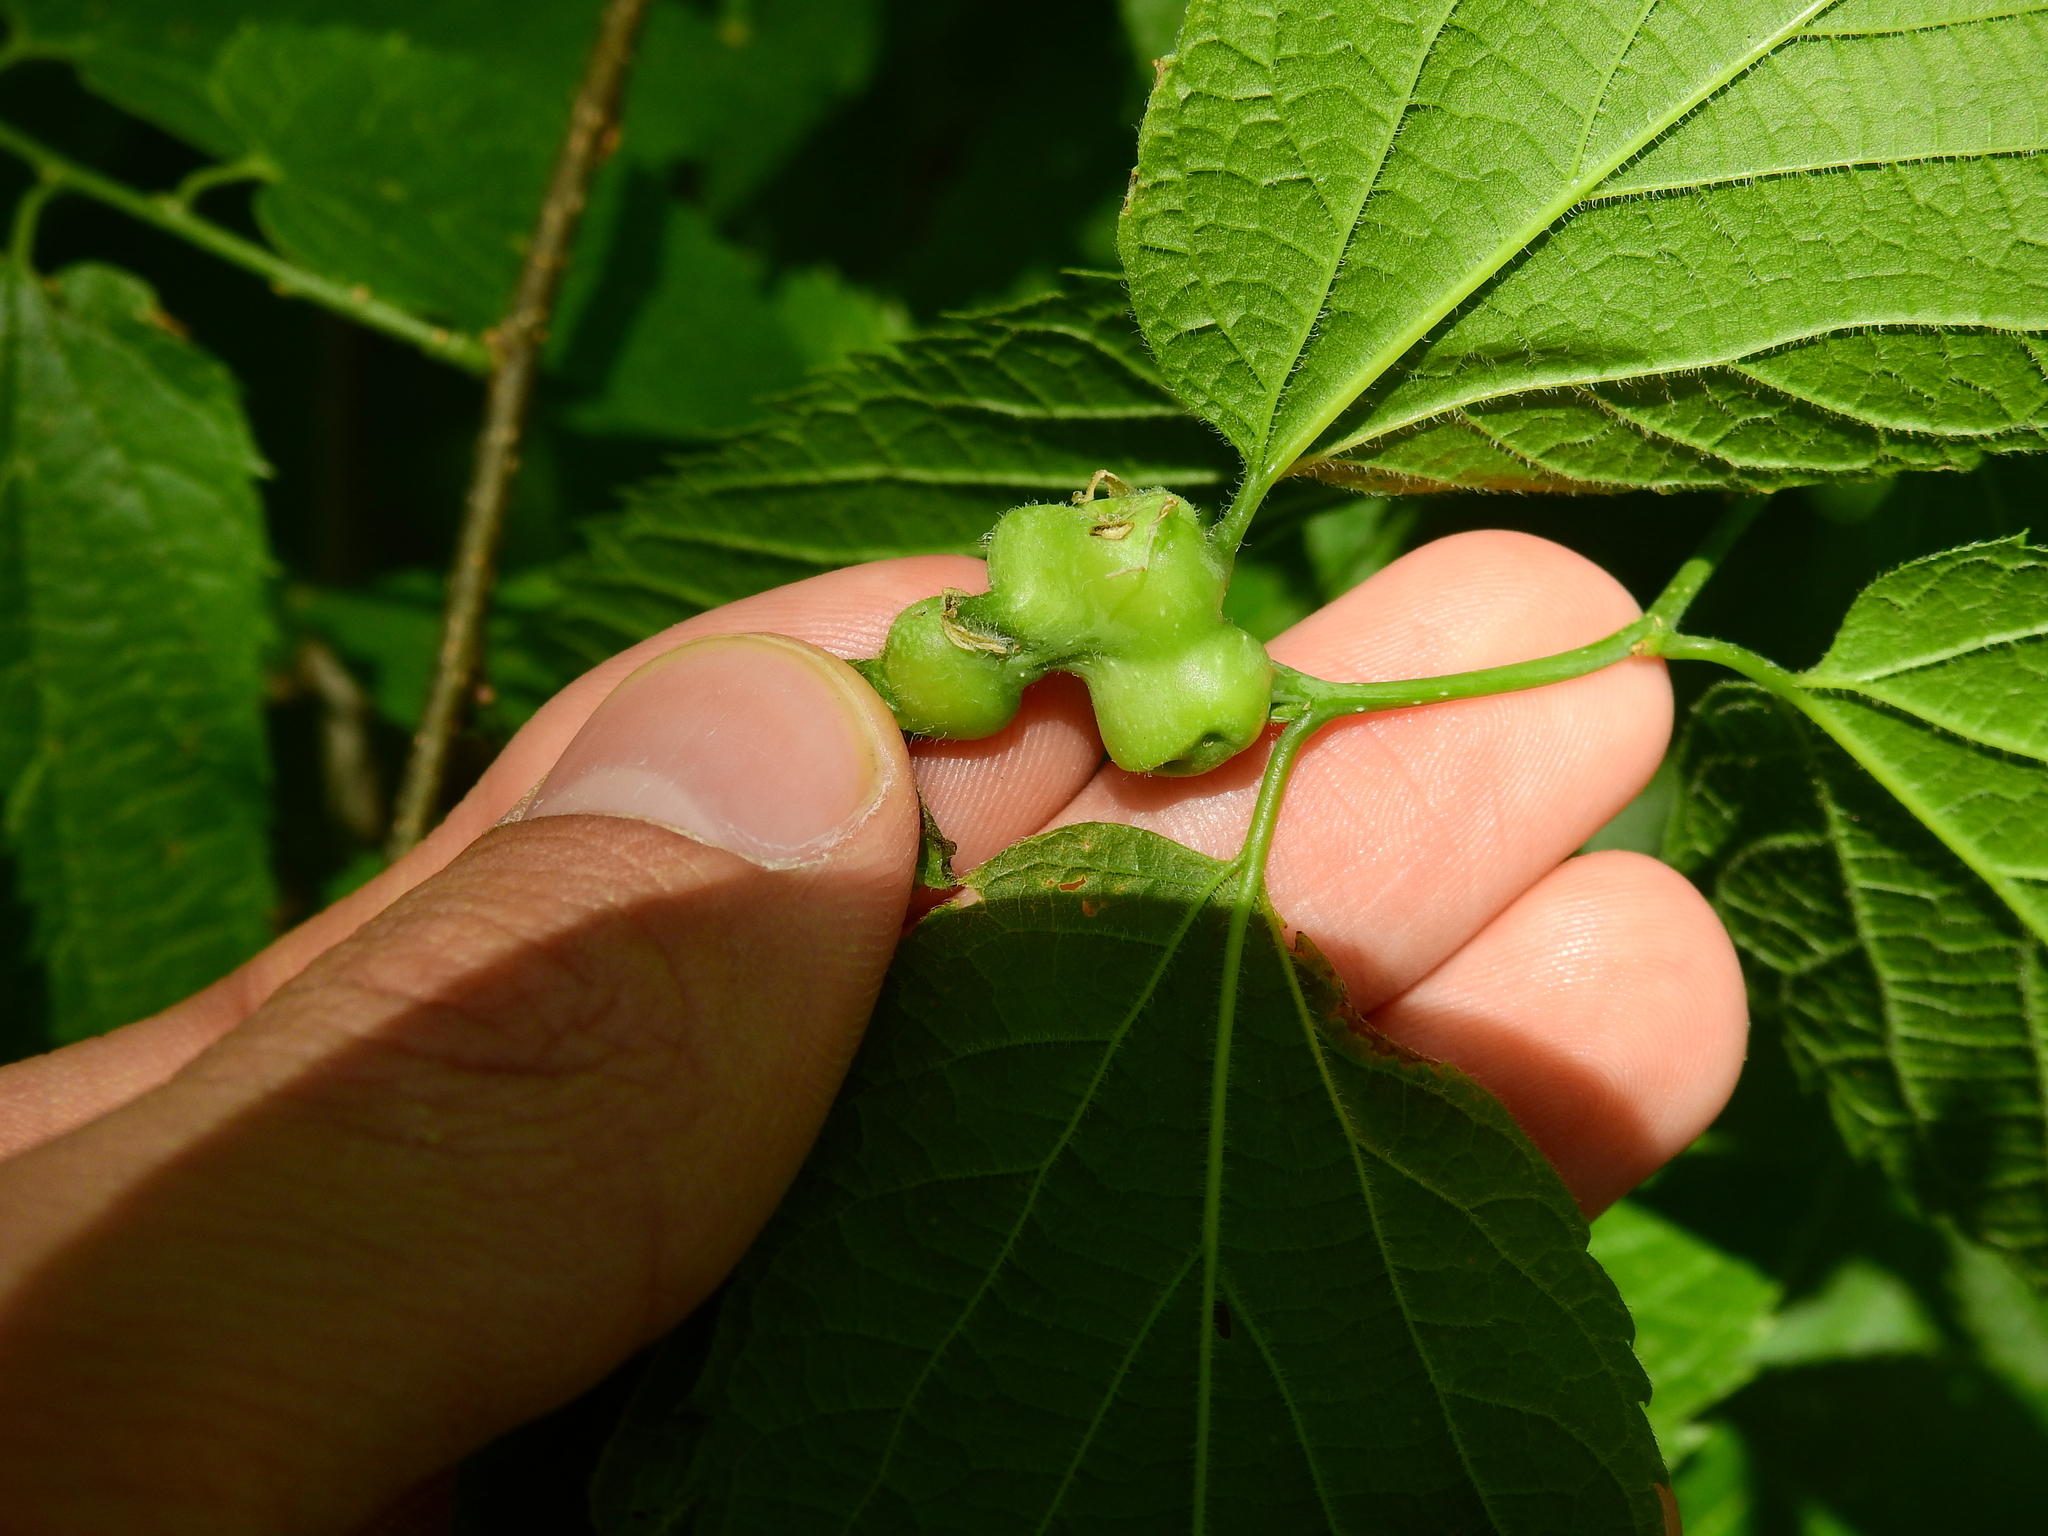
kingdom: Animalia
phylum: Arthropoda
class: Insecta
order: Diptera
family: Cecidomyiidae
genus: Celticecis
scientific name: Celticecis expulsa
